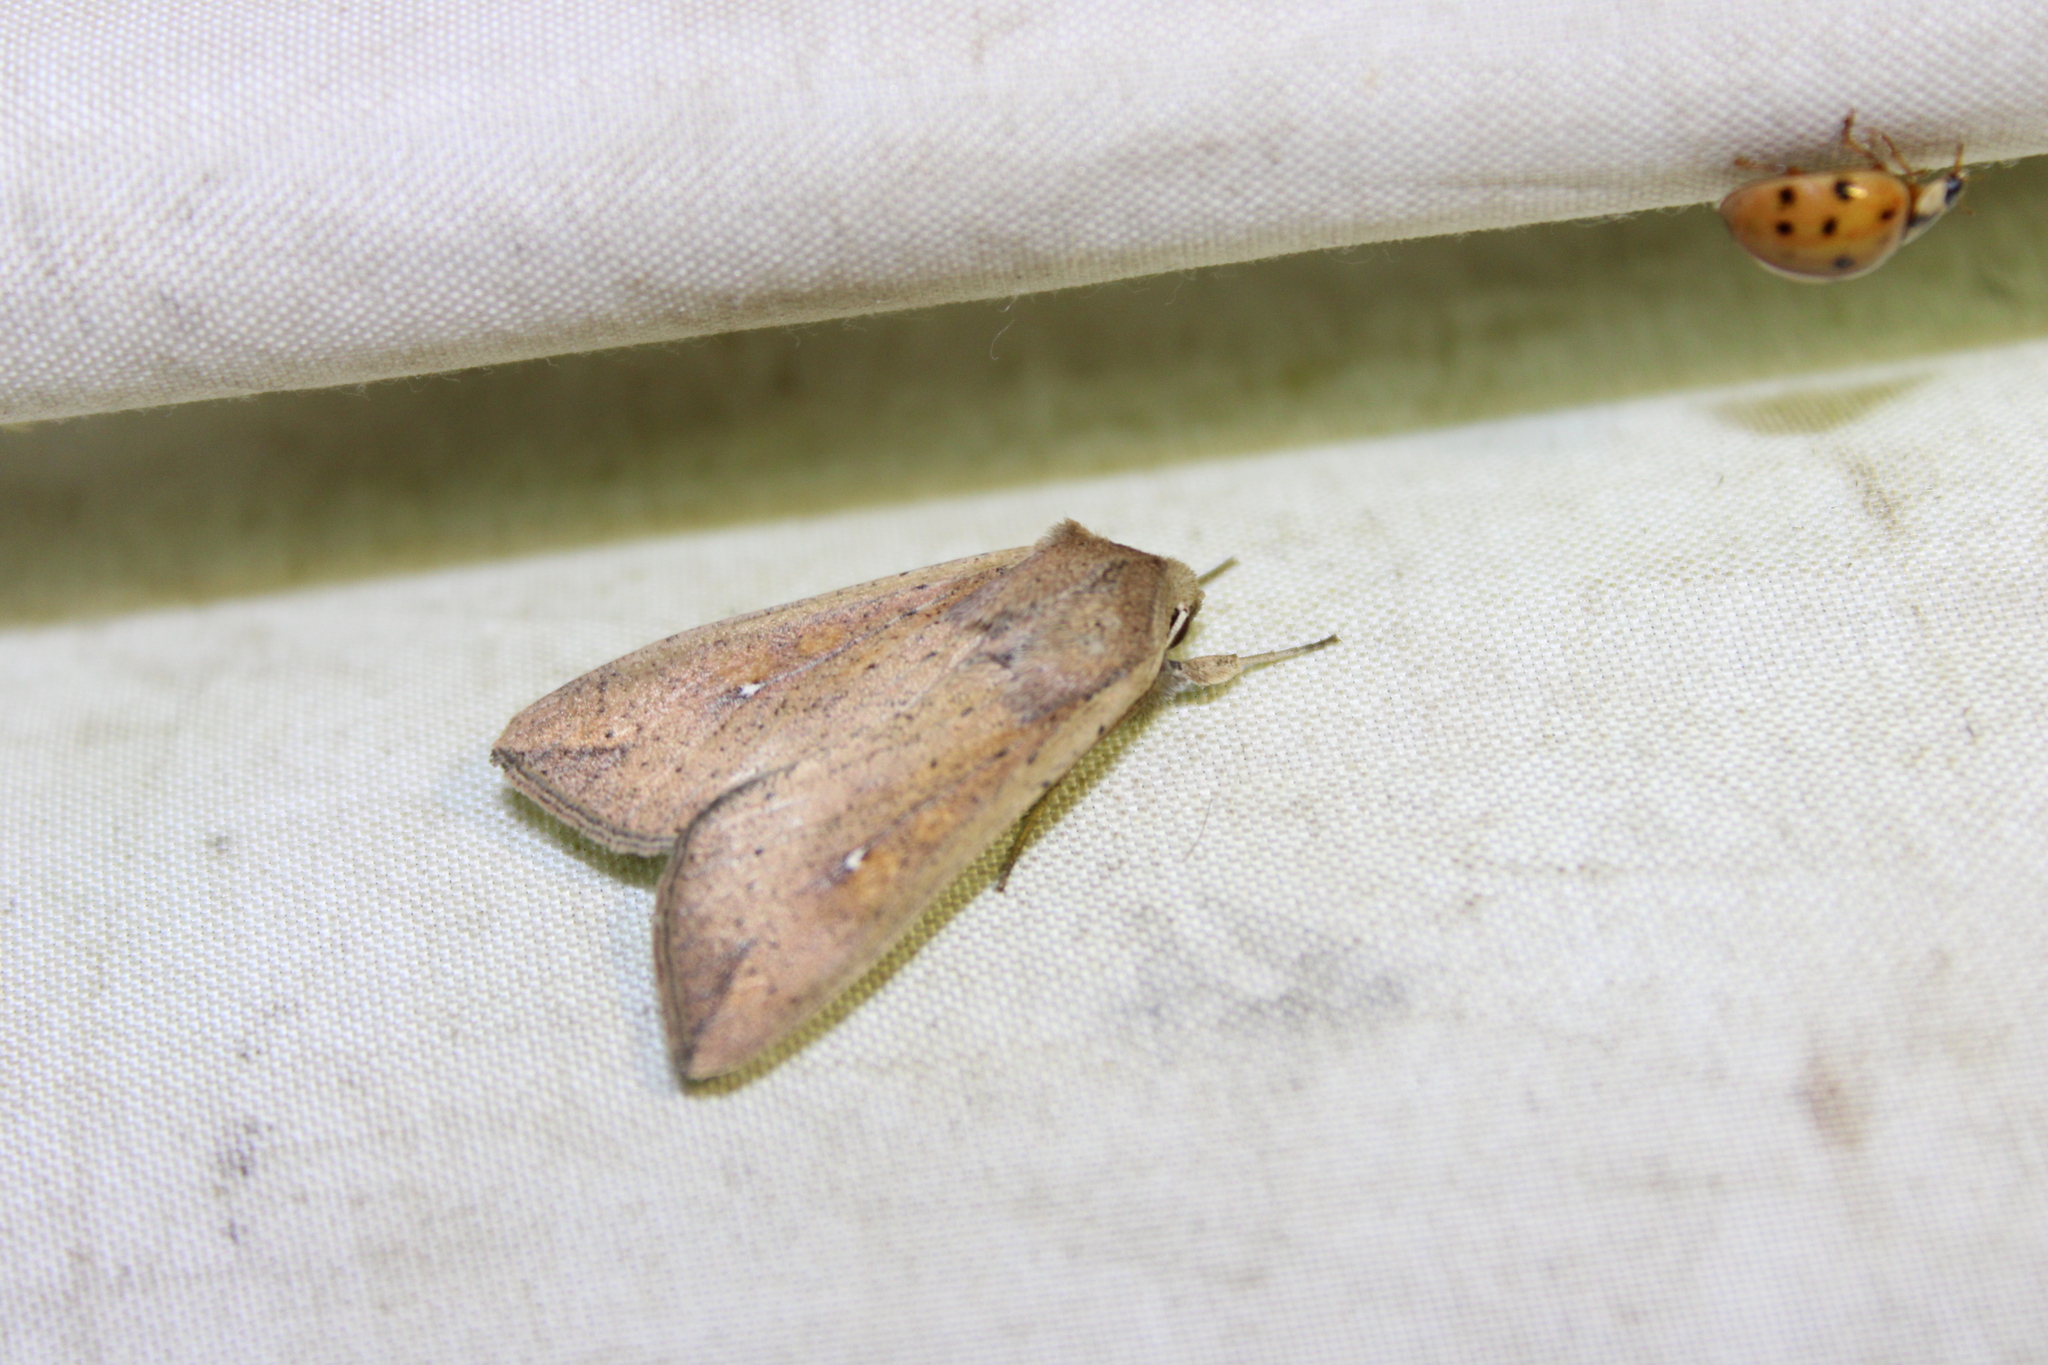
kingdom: Animalia
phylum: Arthropoda
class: Insecta
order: Lepidoptera
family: Noctuidae
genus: Mythimna
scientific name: Mythimna unipuncta
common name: White-speck
